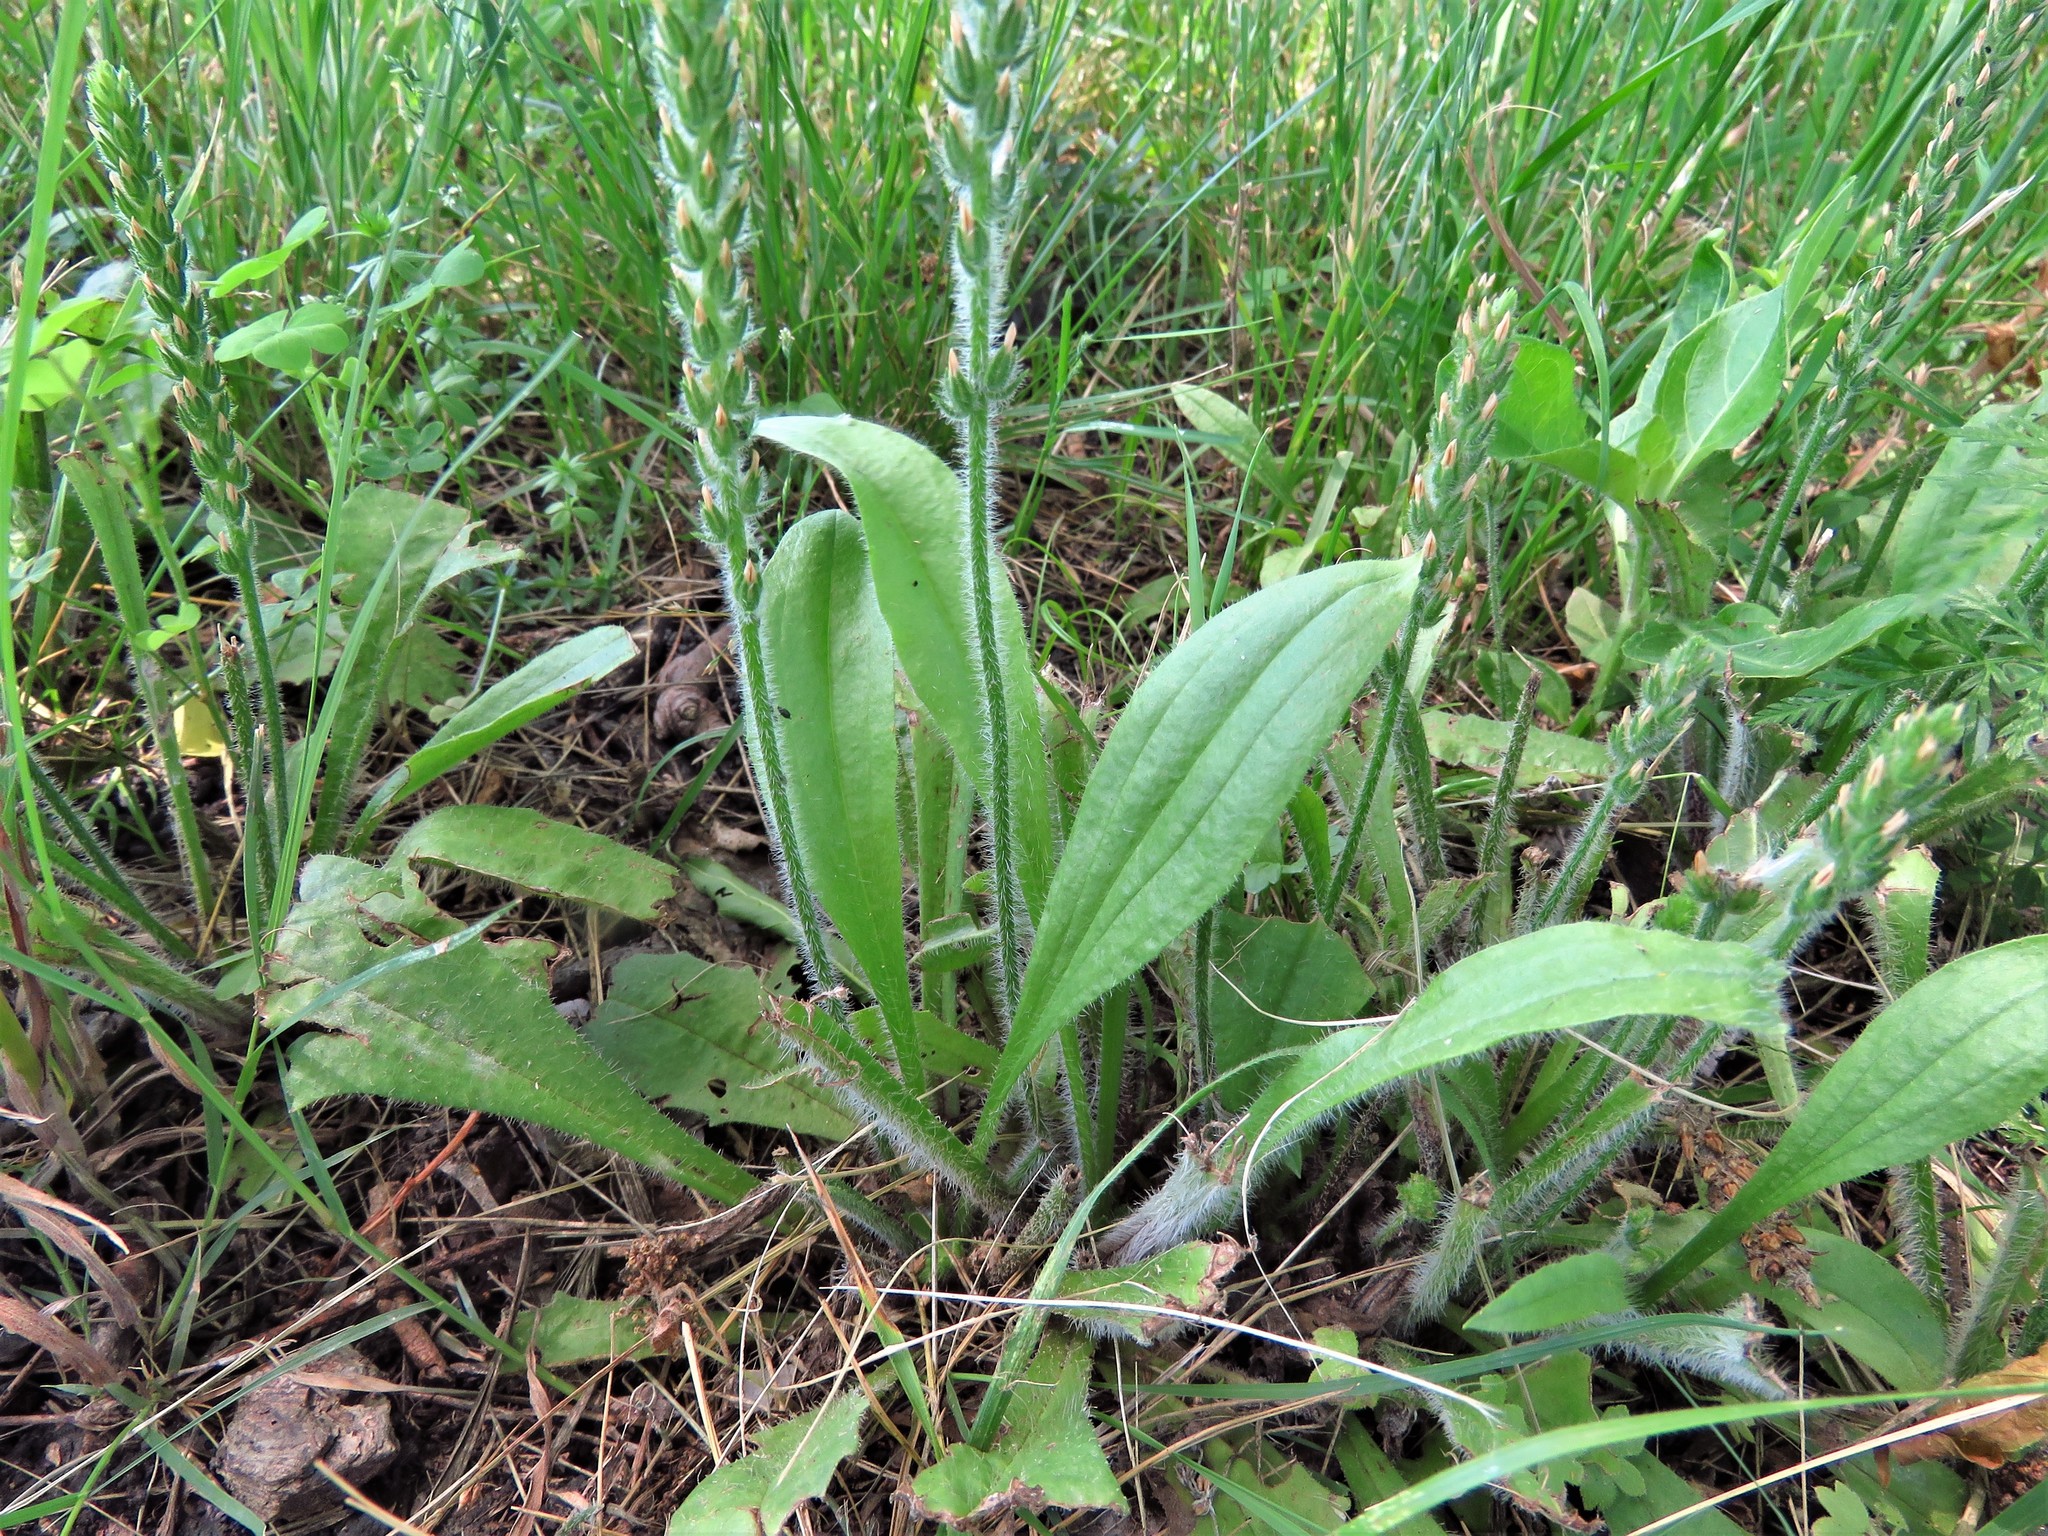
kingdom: Plantae
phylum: Tracheophyta
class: Magnoliopsida
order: Lamiales
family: Plantaginaceae
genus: Plantago
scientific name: Plantago rhodosperma
